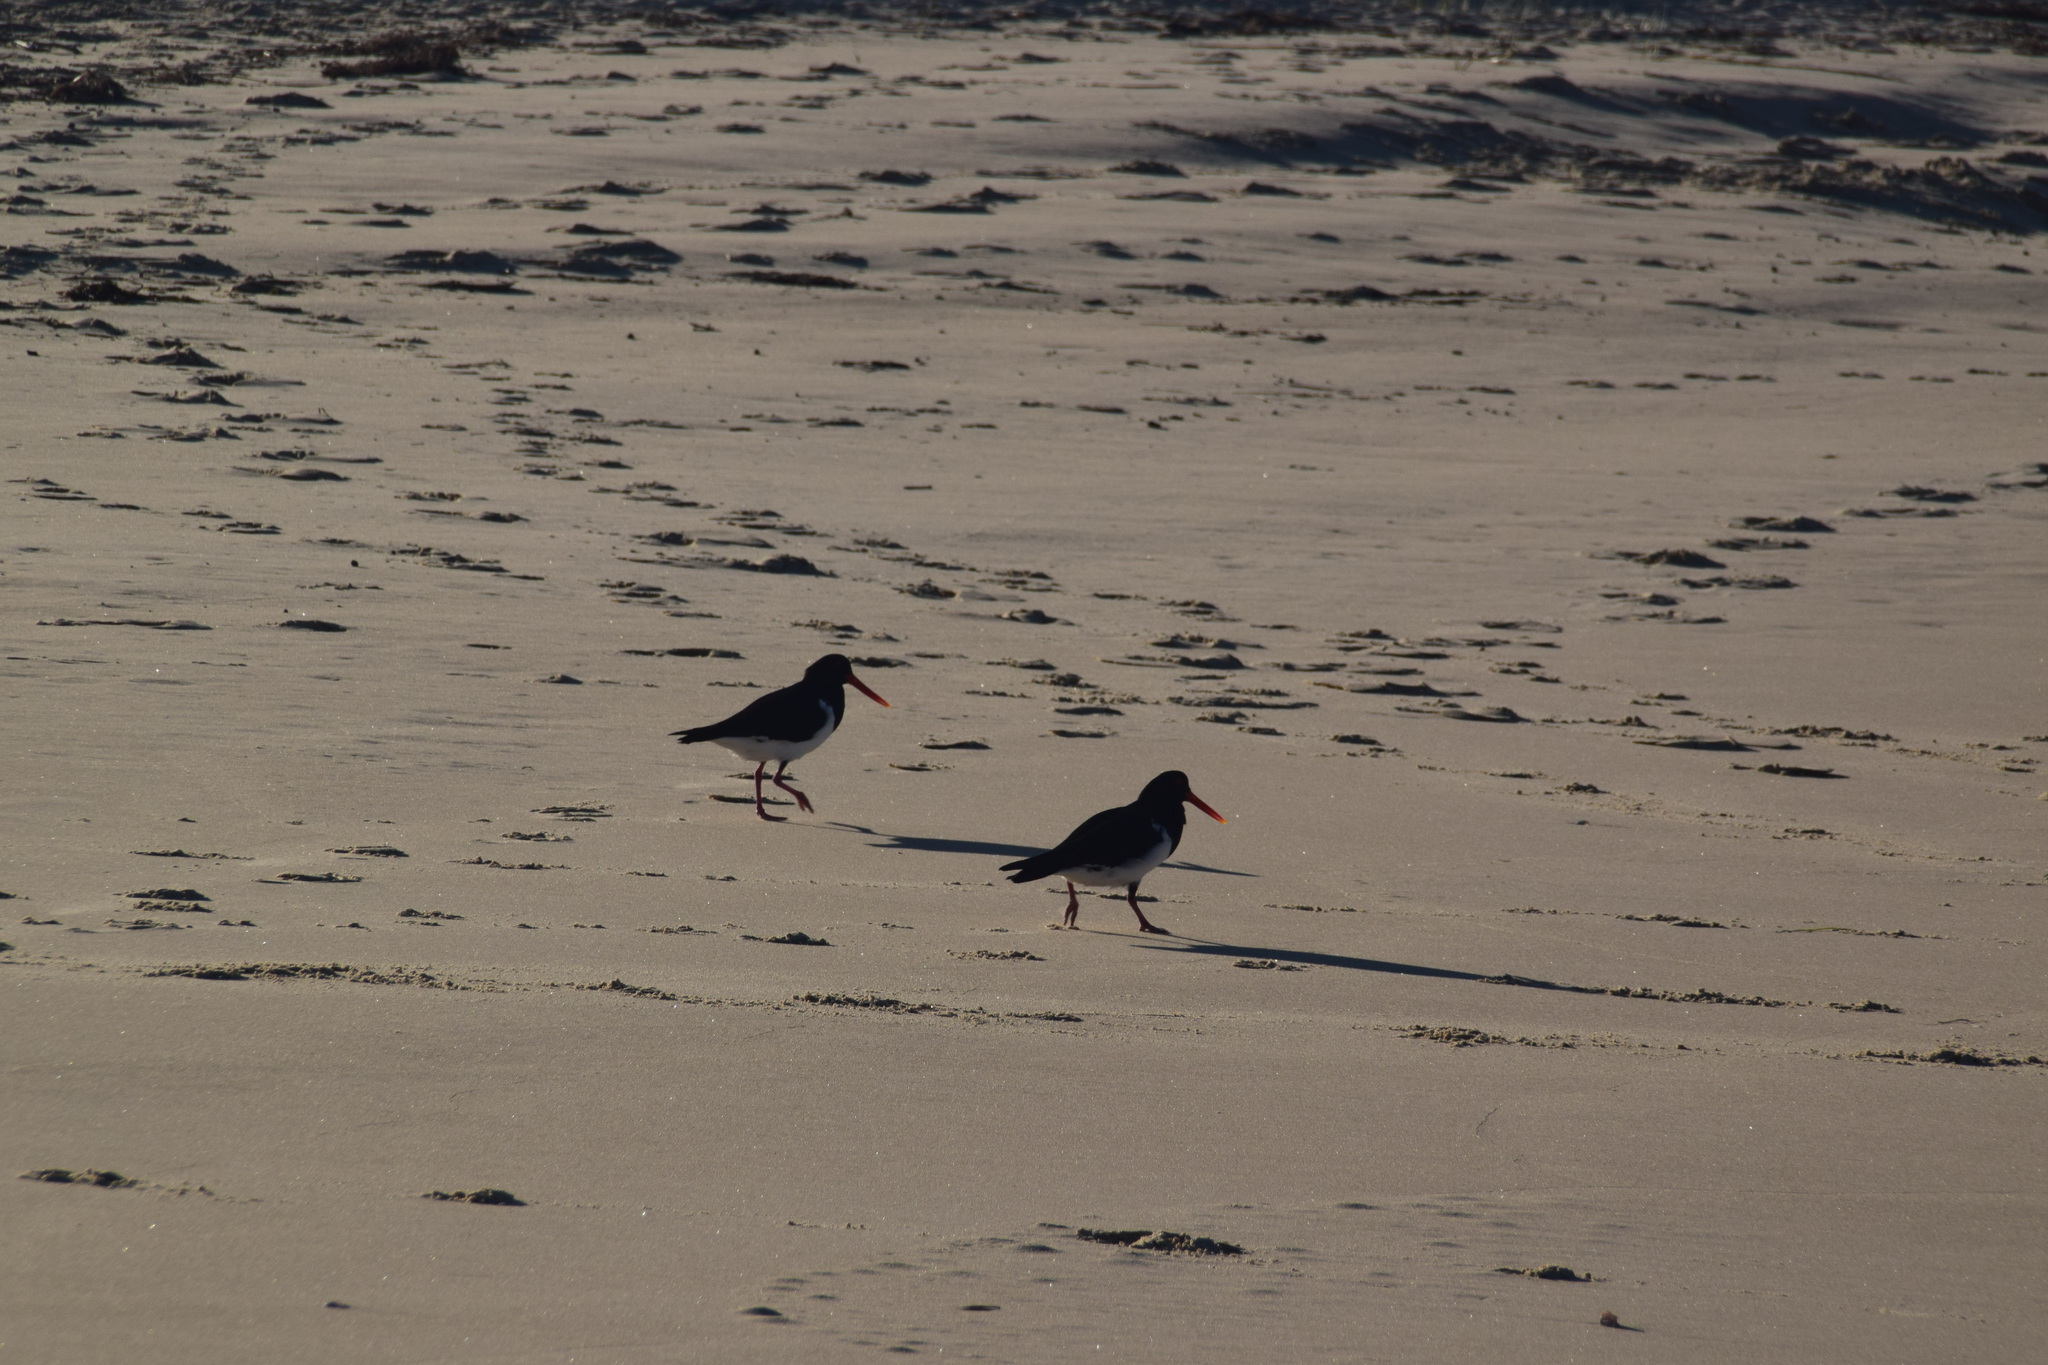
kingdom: Animalia
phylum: Chordata
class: Aves
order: Charadriiformes
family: Haematopodidae
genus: Haematopus
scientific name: Haematopus longirostris
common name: Pied oystercatcher
